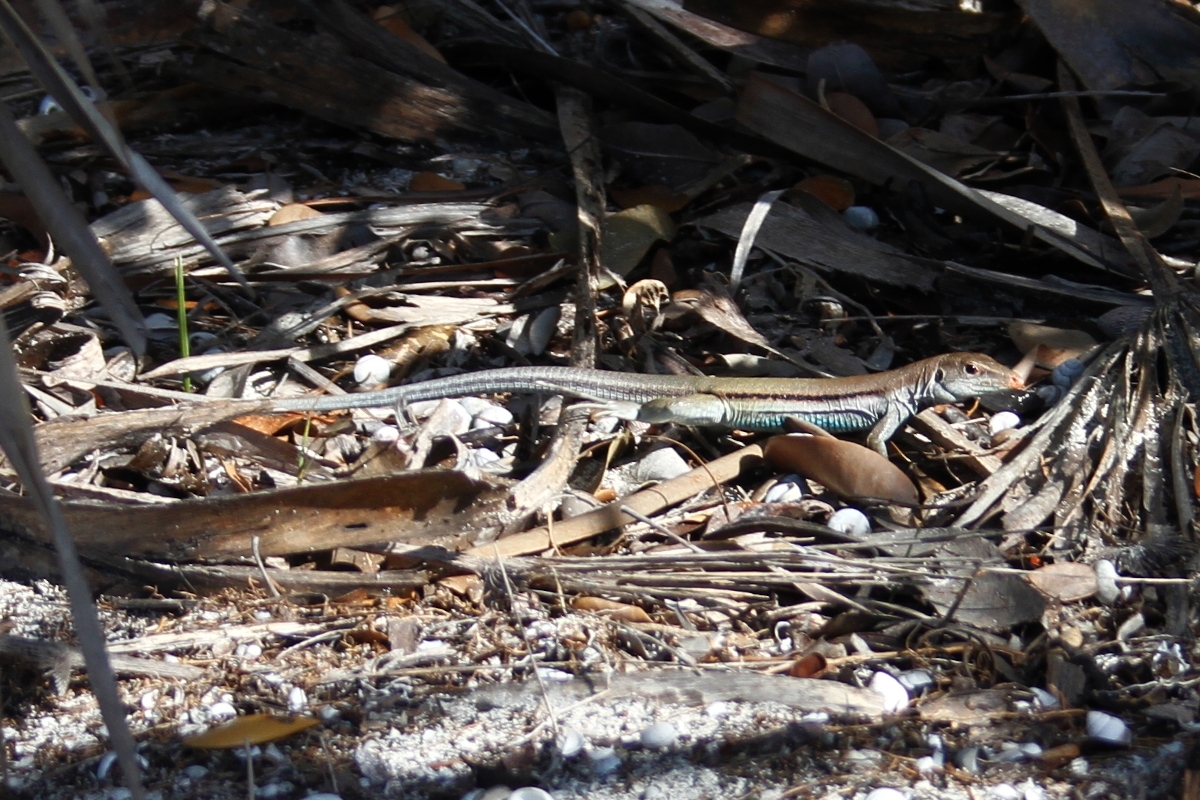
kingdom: Animalia
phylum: Chordata
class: Squamata
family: Teiidae
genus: Pholidoscelis
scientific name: Pholidoscelis auberi
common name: Auber's ameiva
